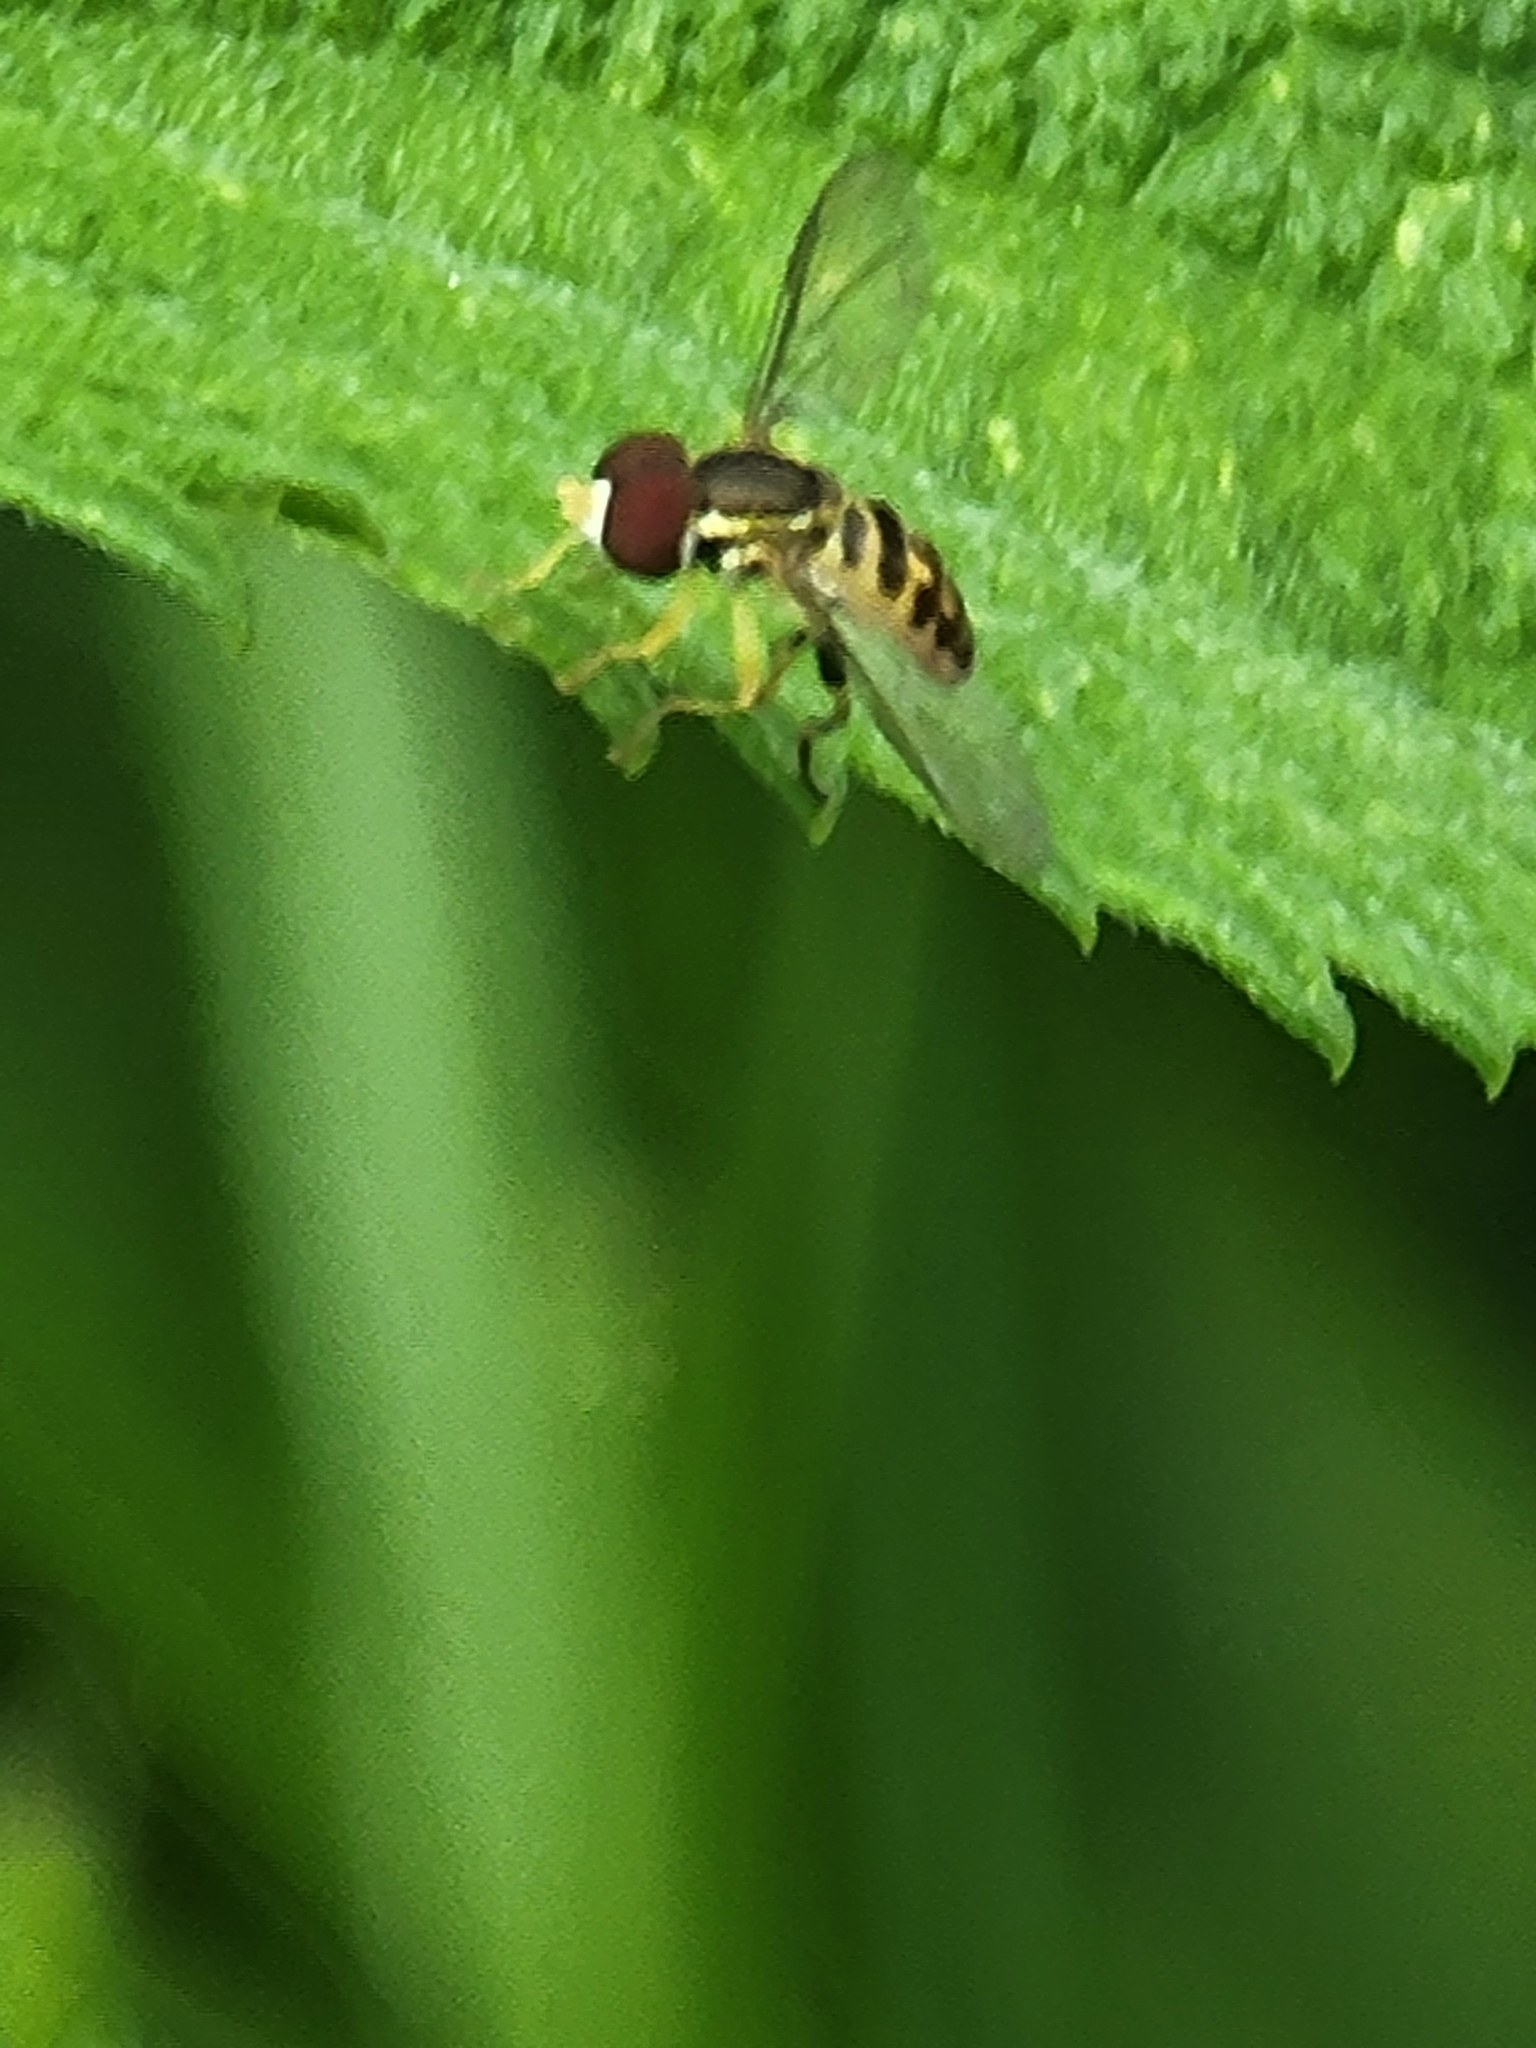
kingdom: Animalia
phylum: Arthropoda
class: Insecta
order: Diptera
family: Syrphidae
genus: Toxomerus
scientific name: Toxomerus geminatus
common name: Eastern calligrapher
